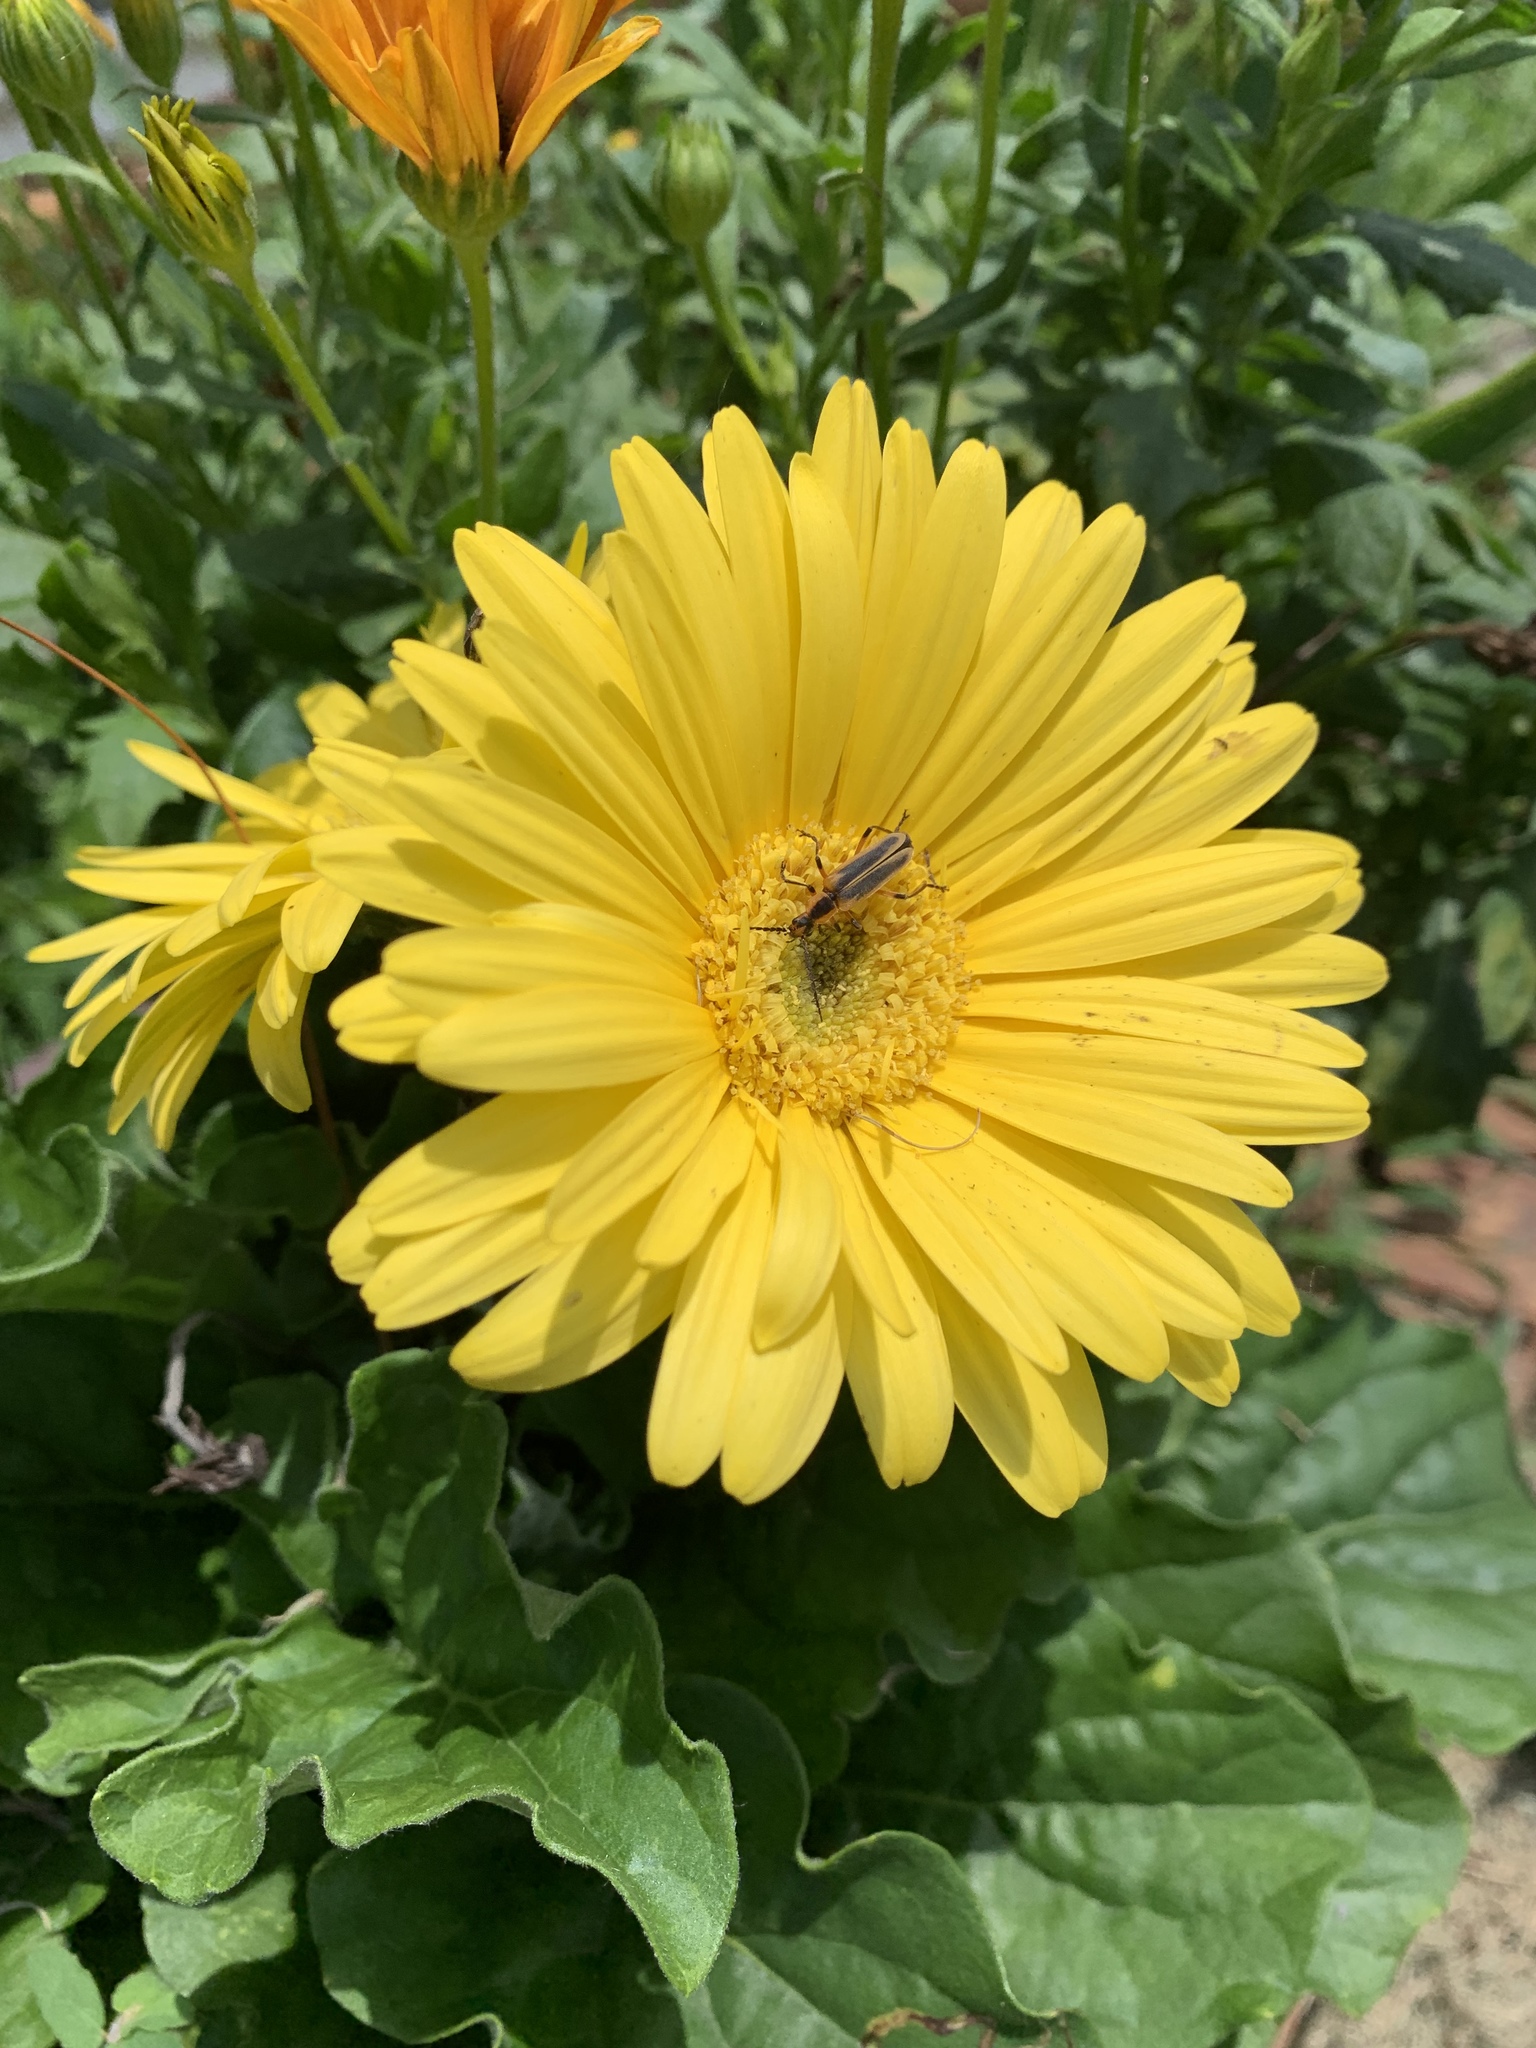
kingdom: Animalia
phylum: Arthropoda
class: Insecta
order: Coleoptera
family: Cantharidae
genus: Chauliognathus
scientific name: Chauliognathus marginatus
